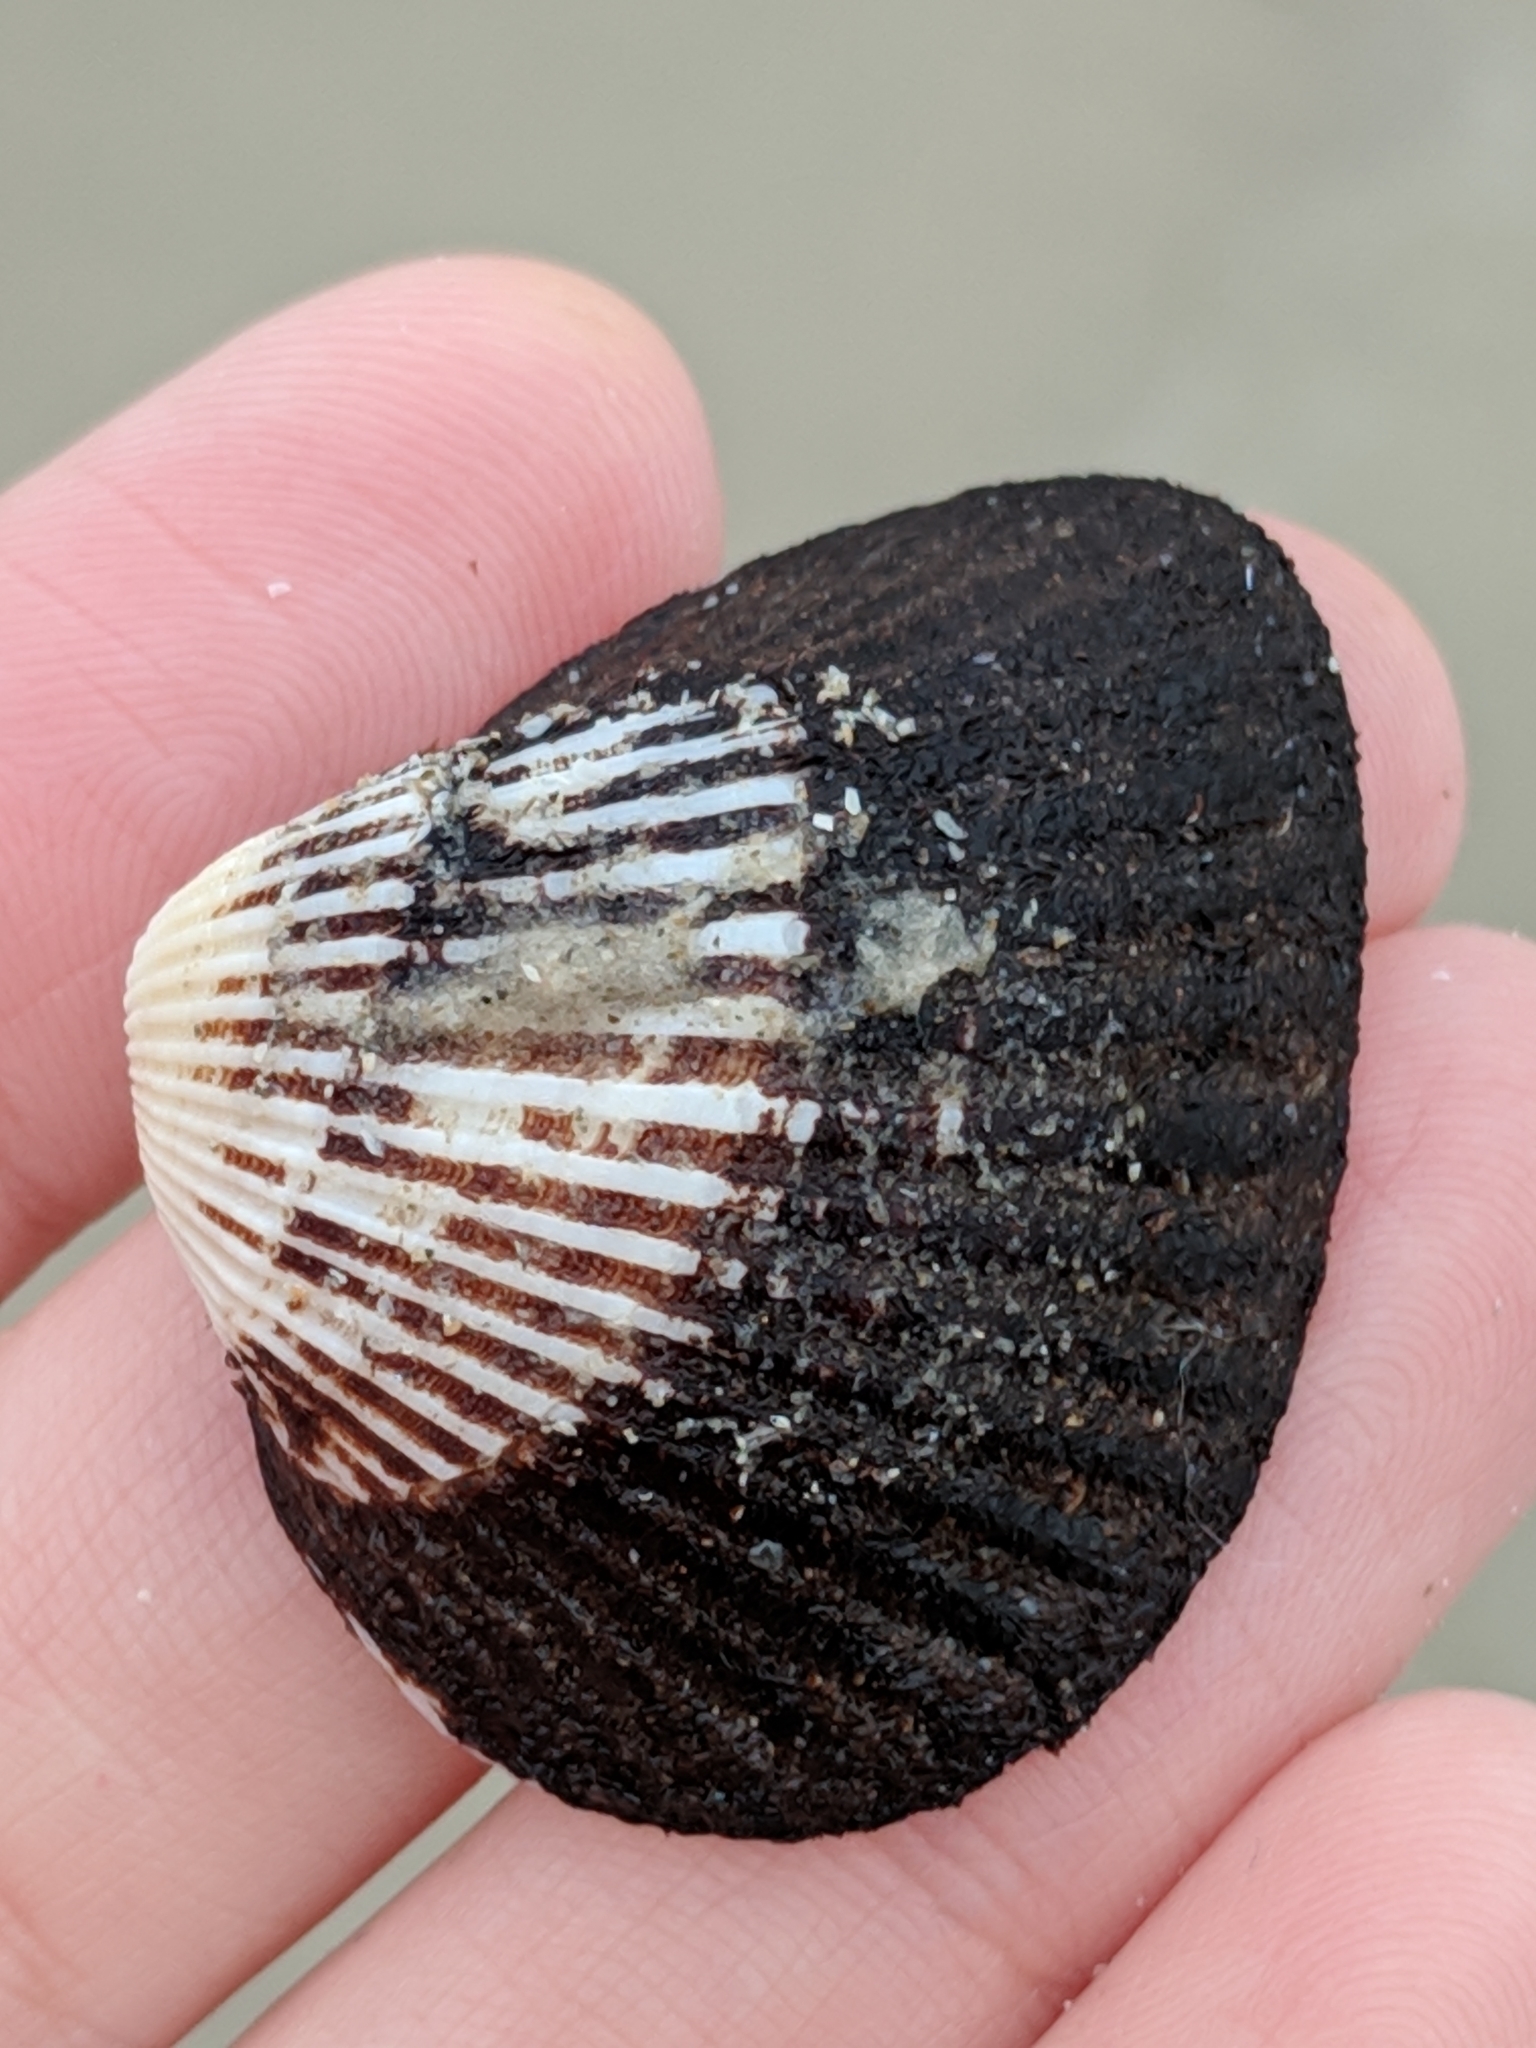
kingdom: Animalia
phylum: Mollusca
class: Bivalvia
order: Arcida
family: Noetiidae
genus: Noetia
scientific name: Noetia ponderosa
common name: Ponderous ark
